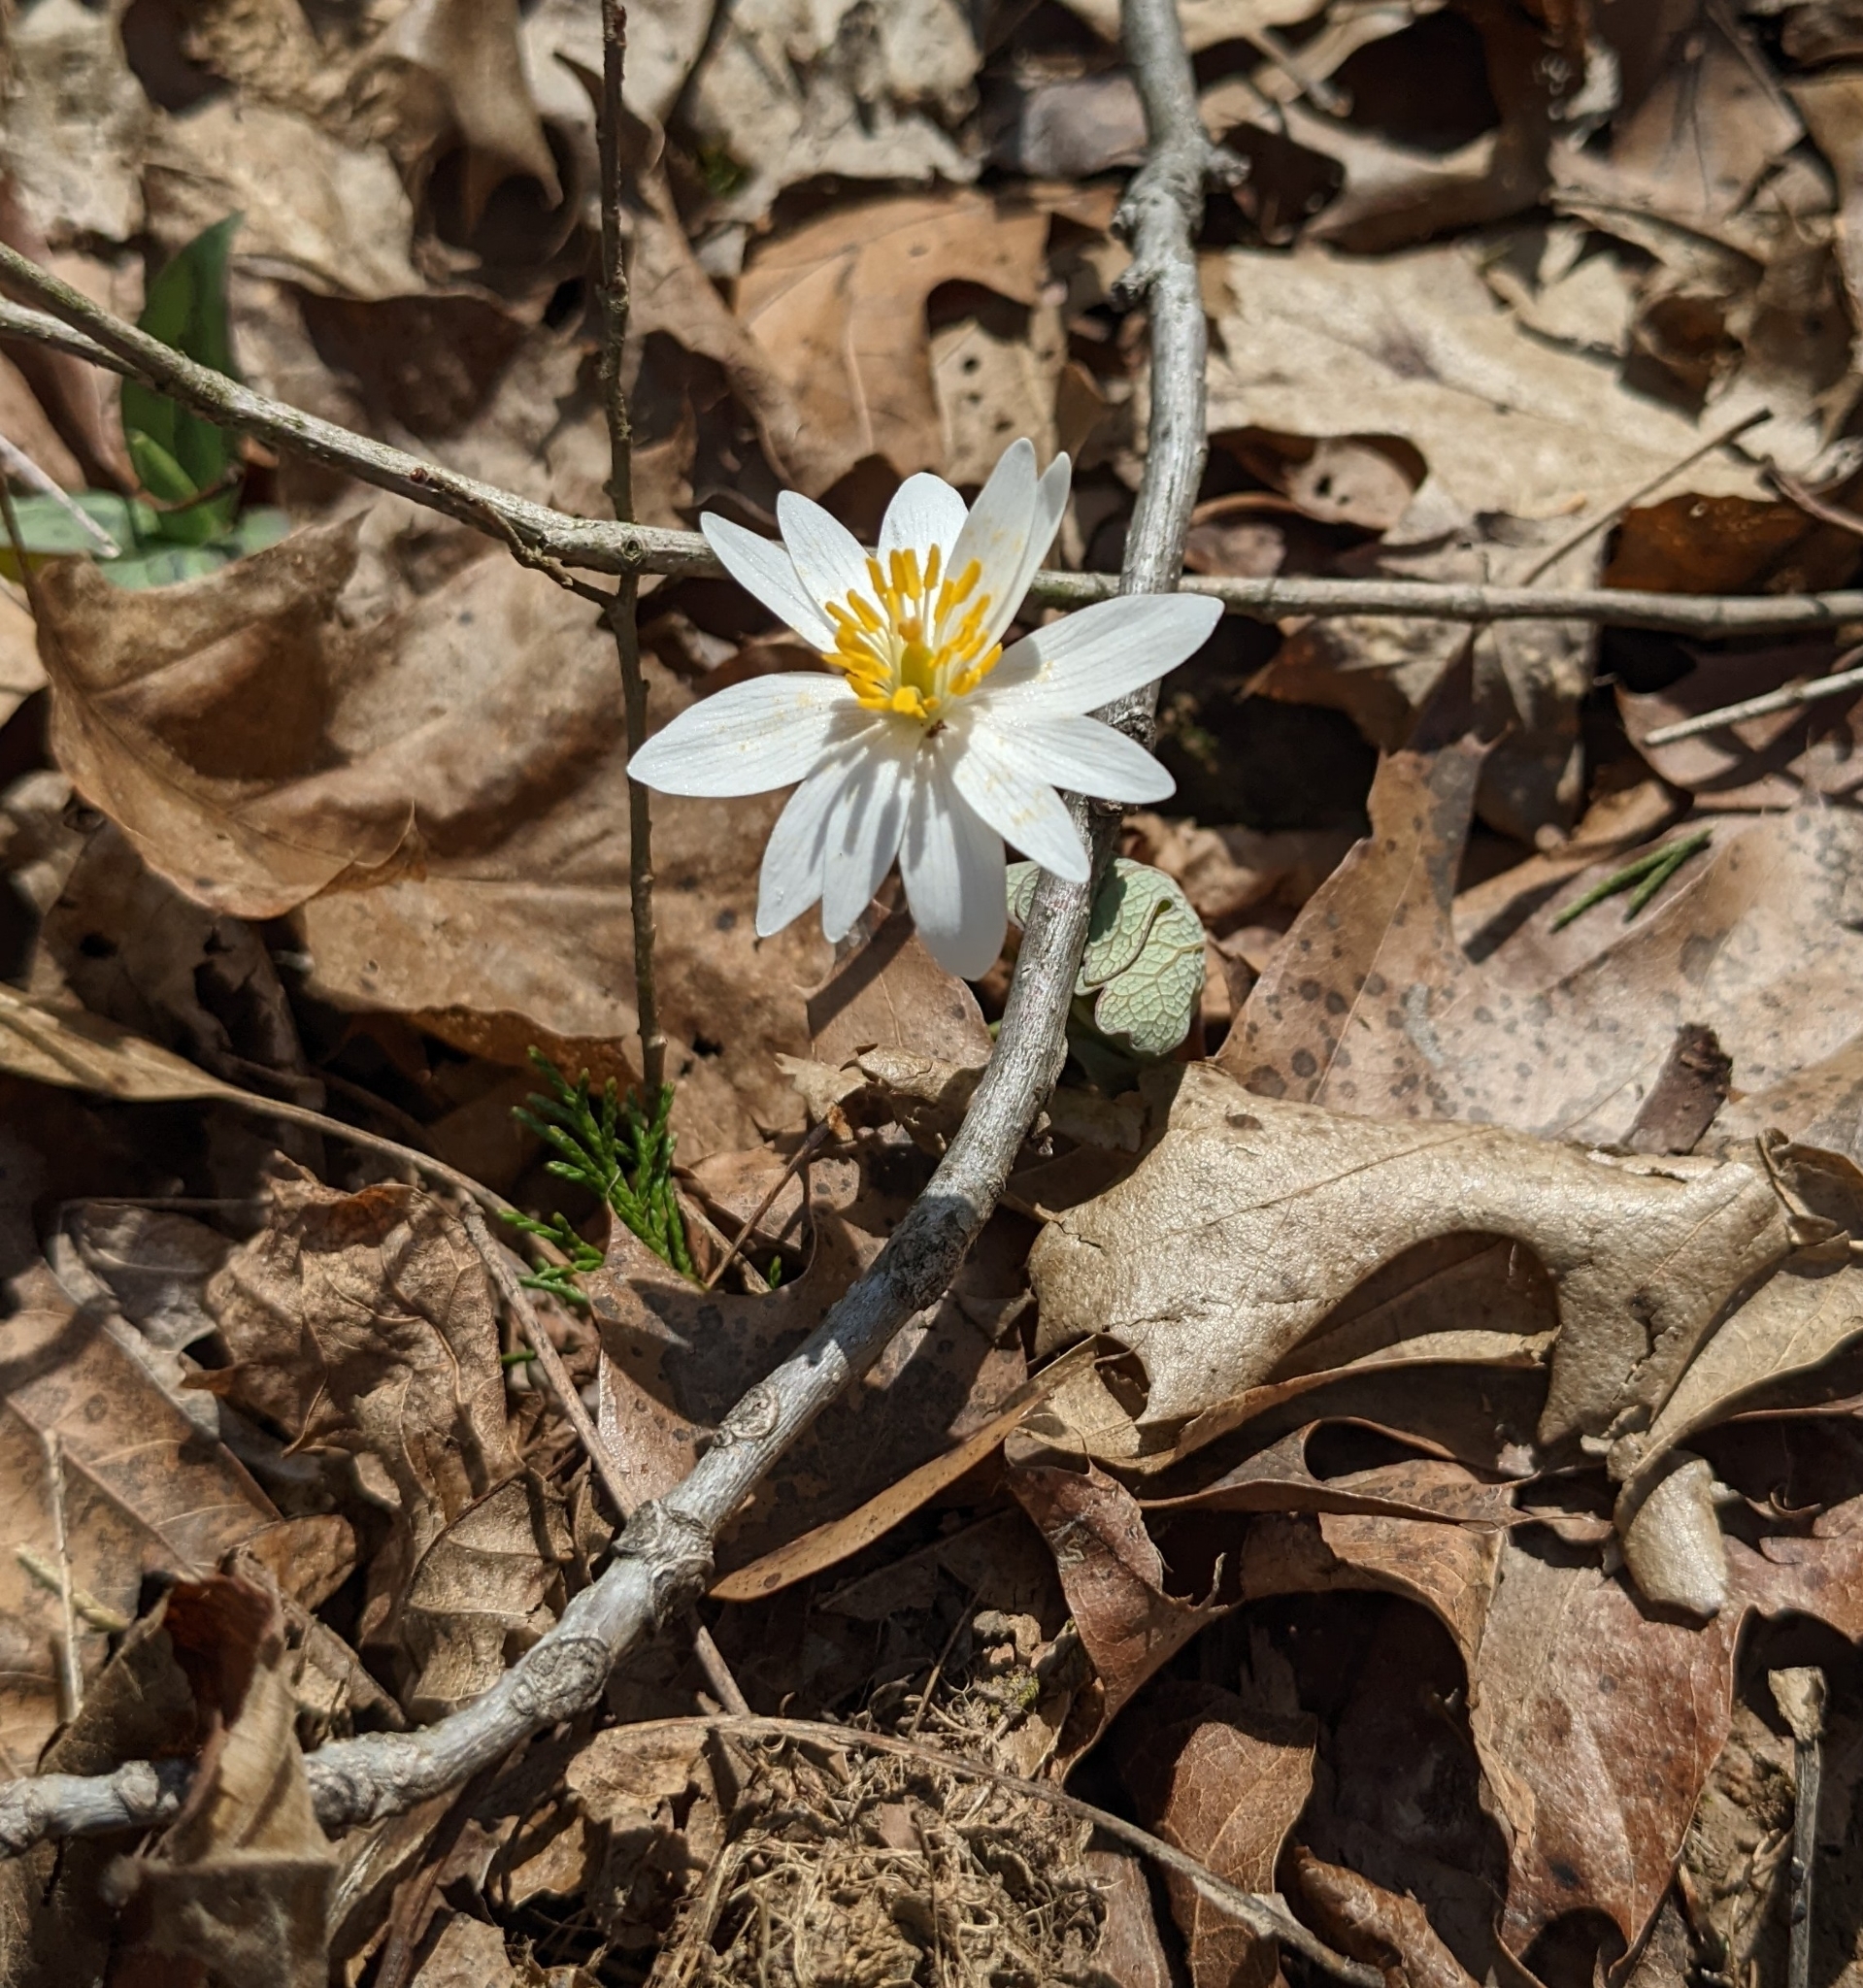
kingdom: Plantae
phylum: Tracheophyta
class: Magnoliopsida
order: Ranunculales
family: Papaveraceae
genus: Sanguinaria
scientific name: Sanguinaria canadensis
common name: Bloodroot
